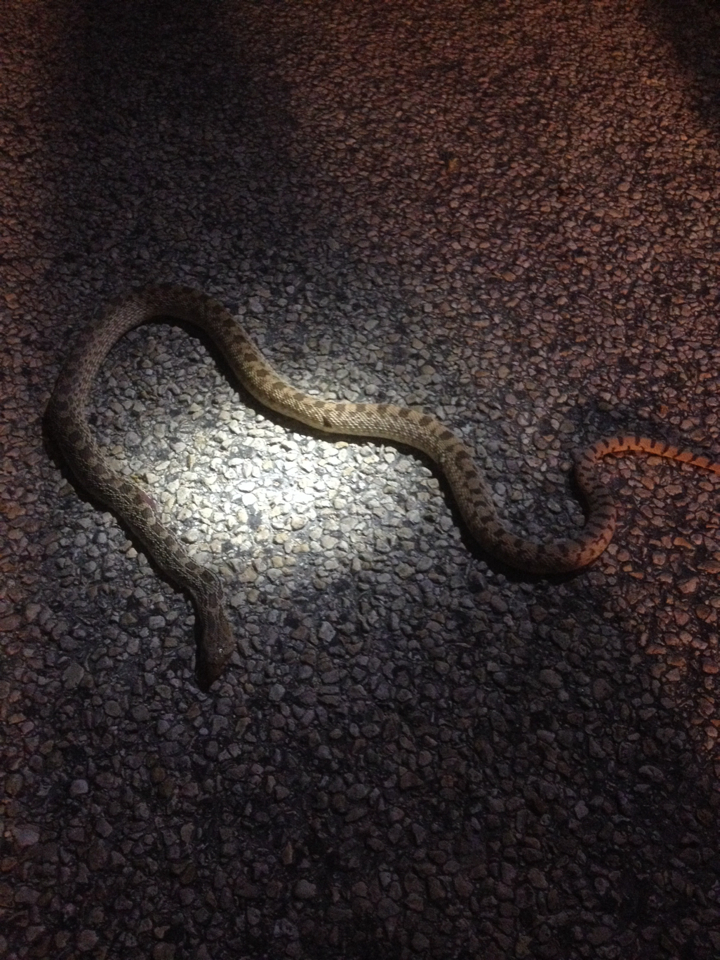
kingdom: Animalia
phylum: Chordata
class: Squamata
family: Colubridae
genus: Pituophis
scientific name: Pituophis catenifer
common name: Gopher snake
